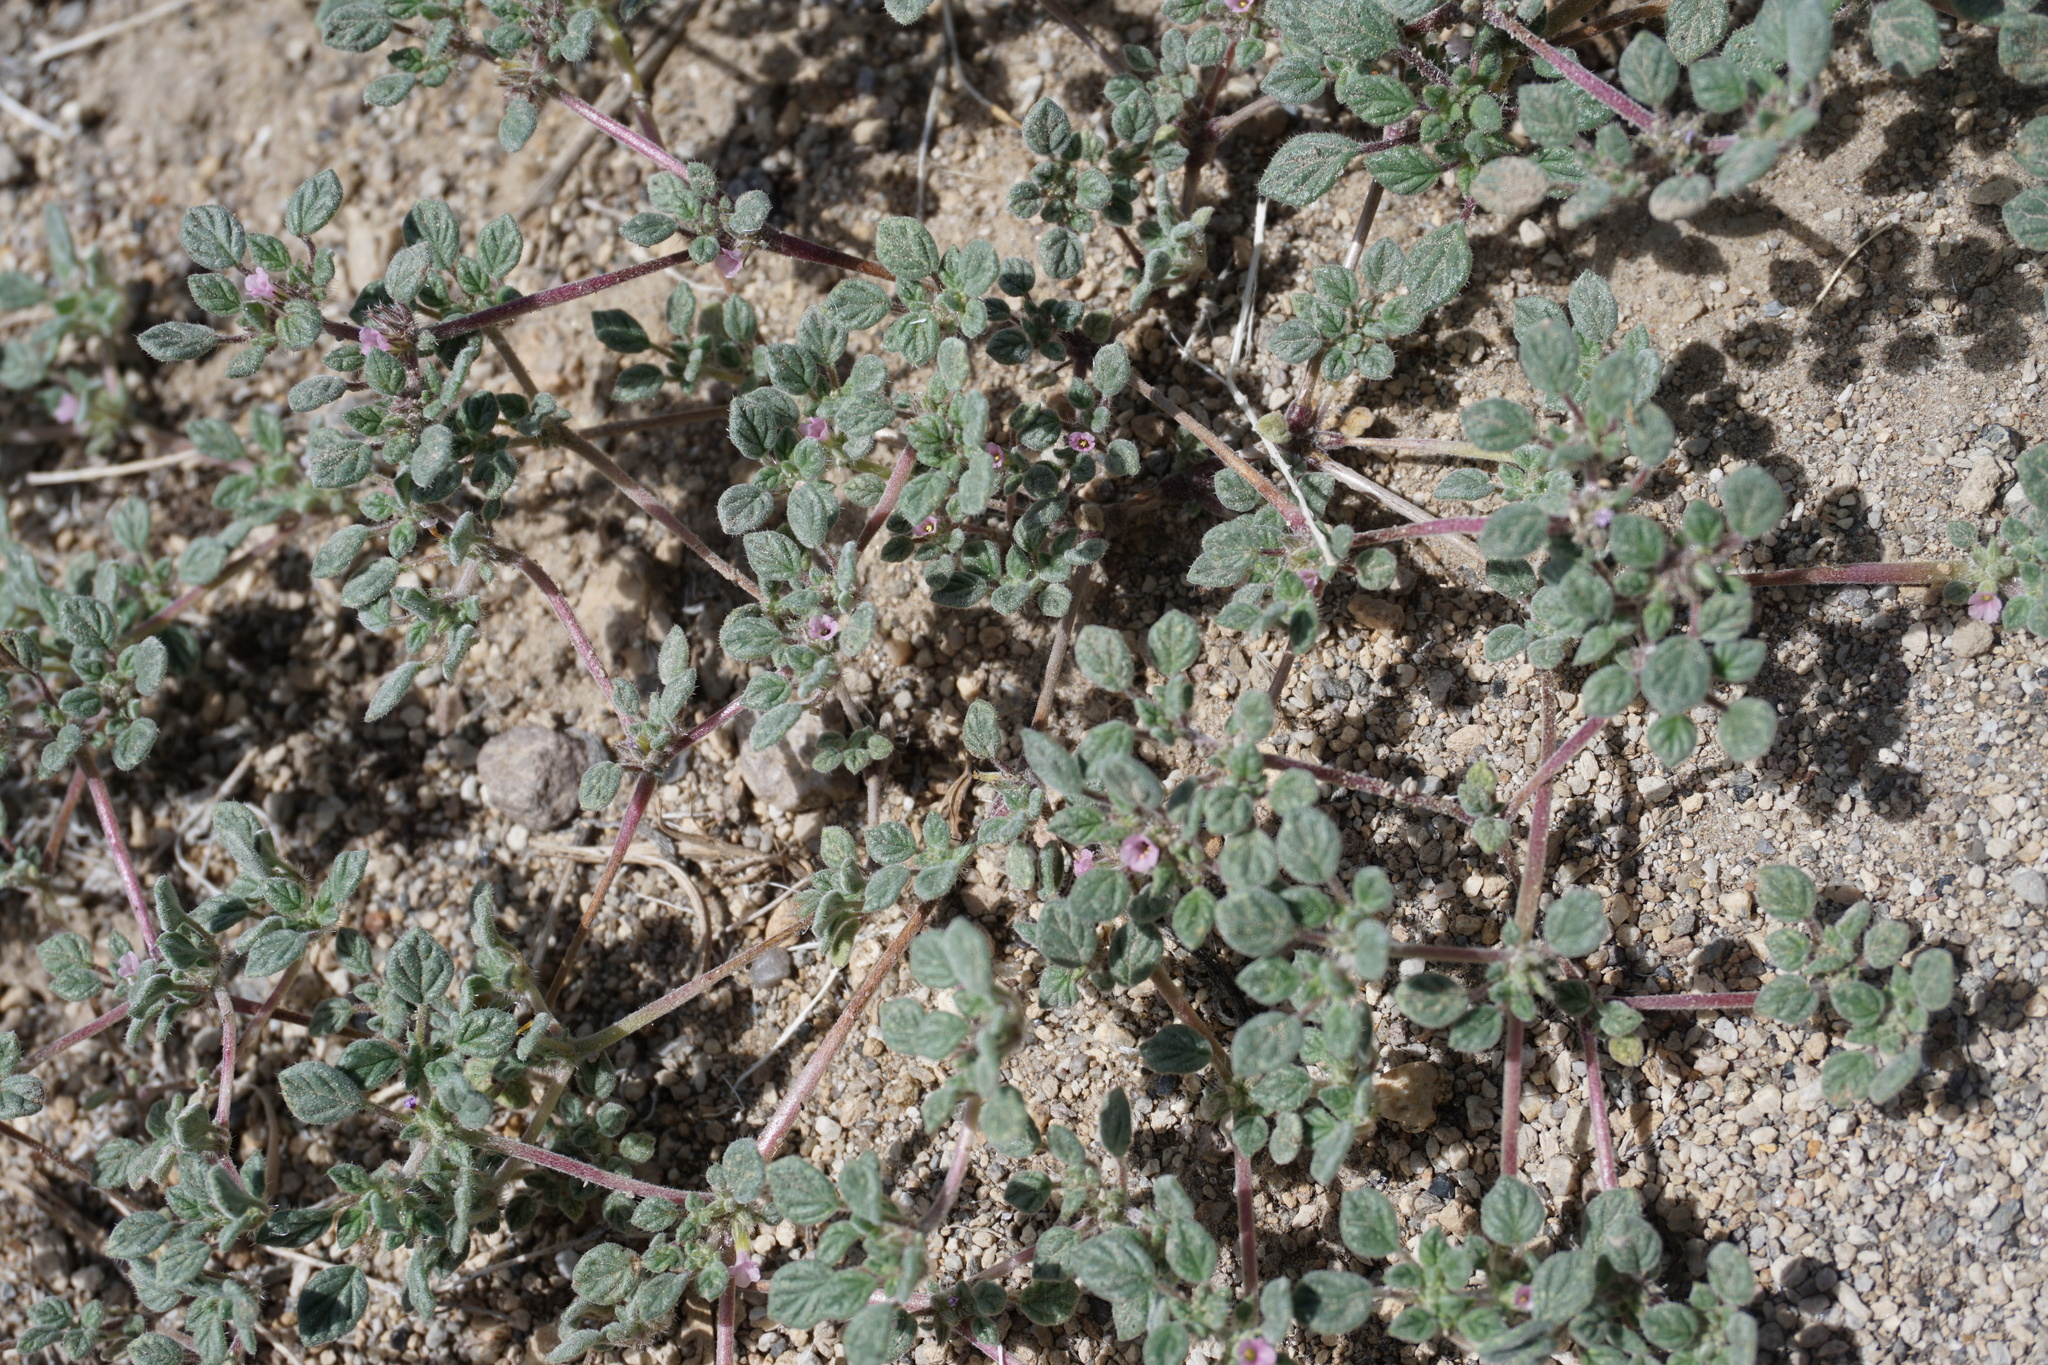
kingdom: Plantae
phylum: Tracheophyta
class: Magnoliopsida
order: Boraginales
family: Ehretiaceae
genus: Tiquilia
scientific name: Tiquilia nuttallii
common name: Rosette tiquilia
